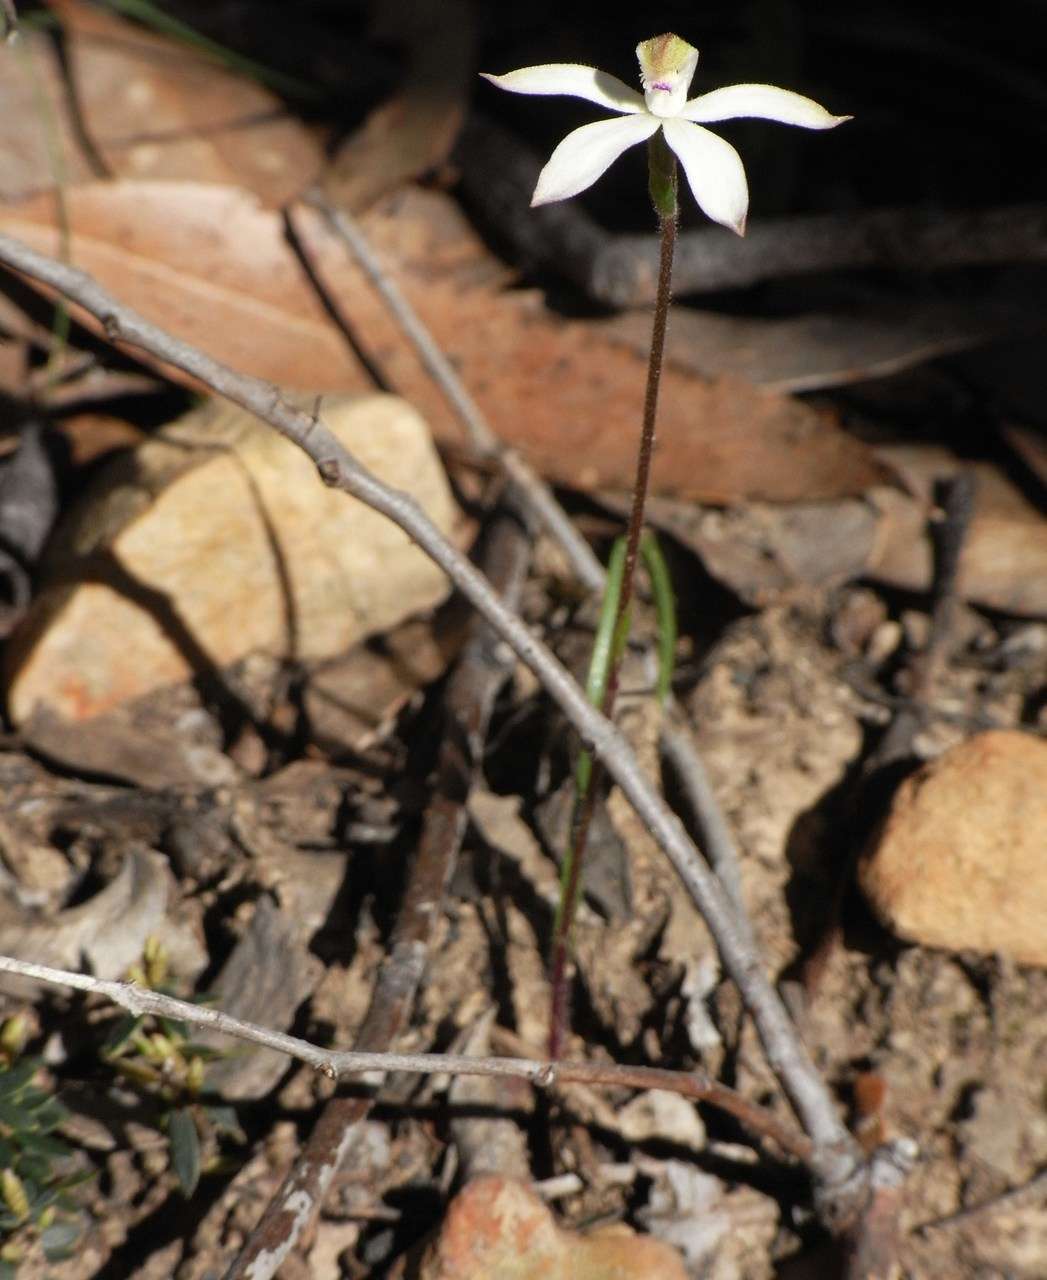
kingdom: Plantae
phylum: Tracheophyta
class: Liliopsida
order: Asparagales
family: Orchidaceae
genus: Caladenia
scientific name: Caladenia dimorpha
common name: Spicy caps
